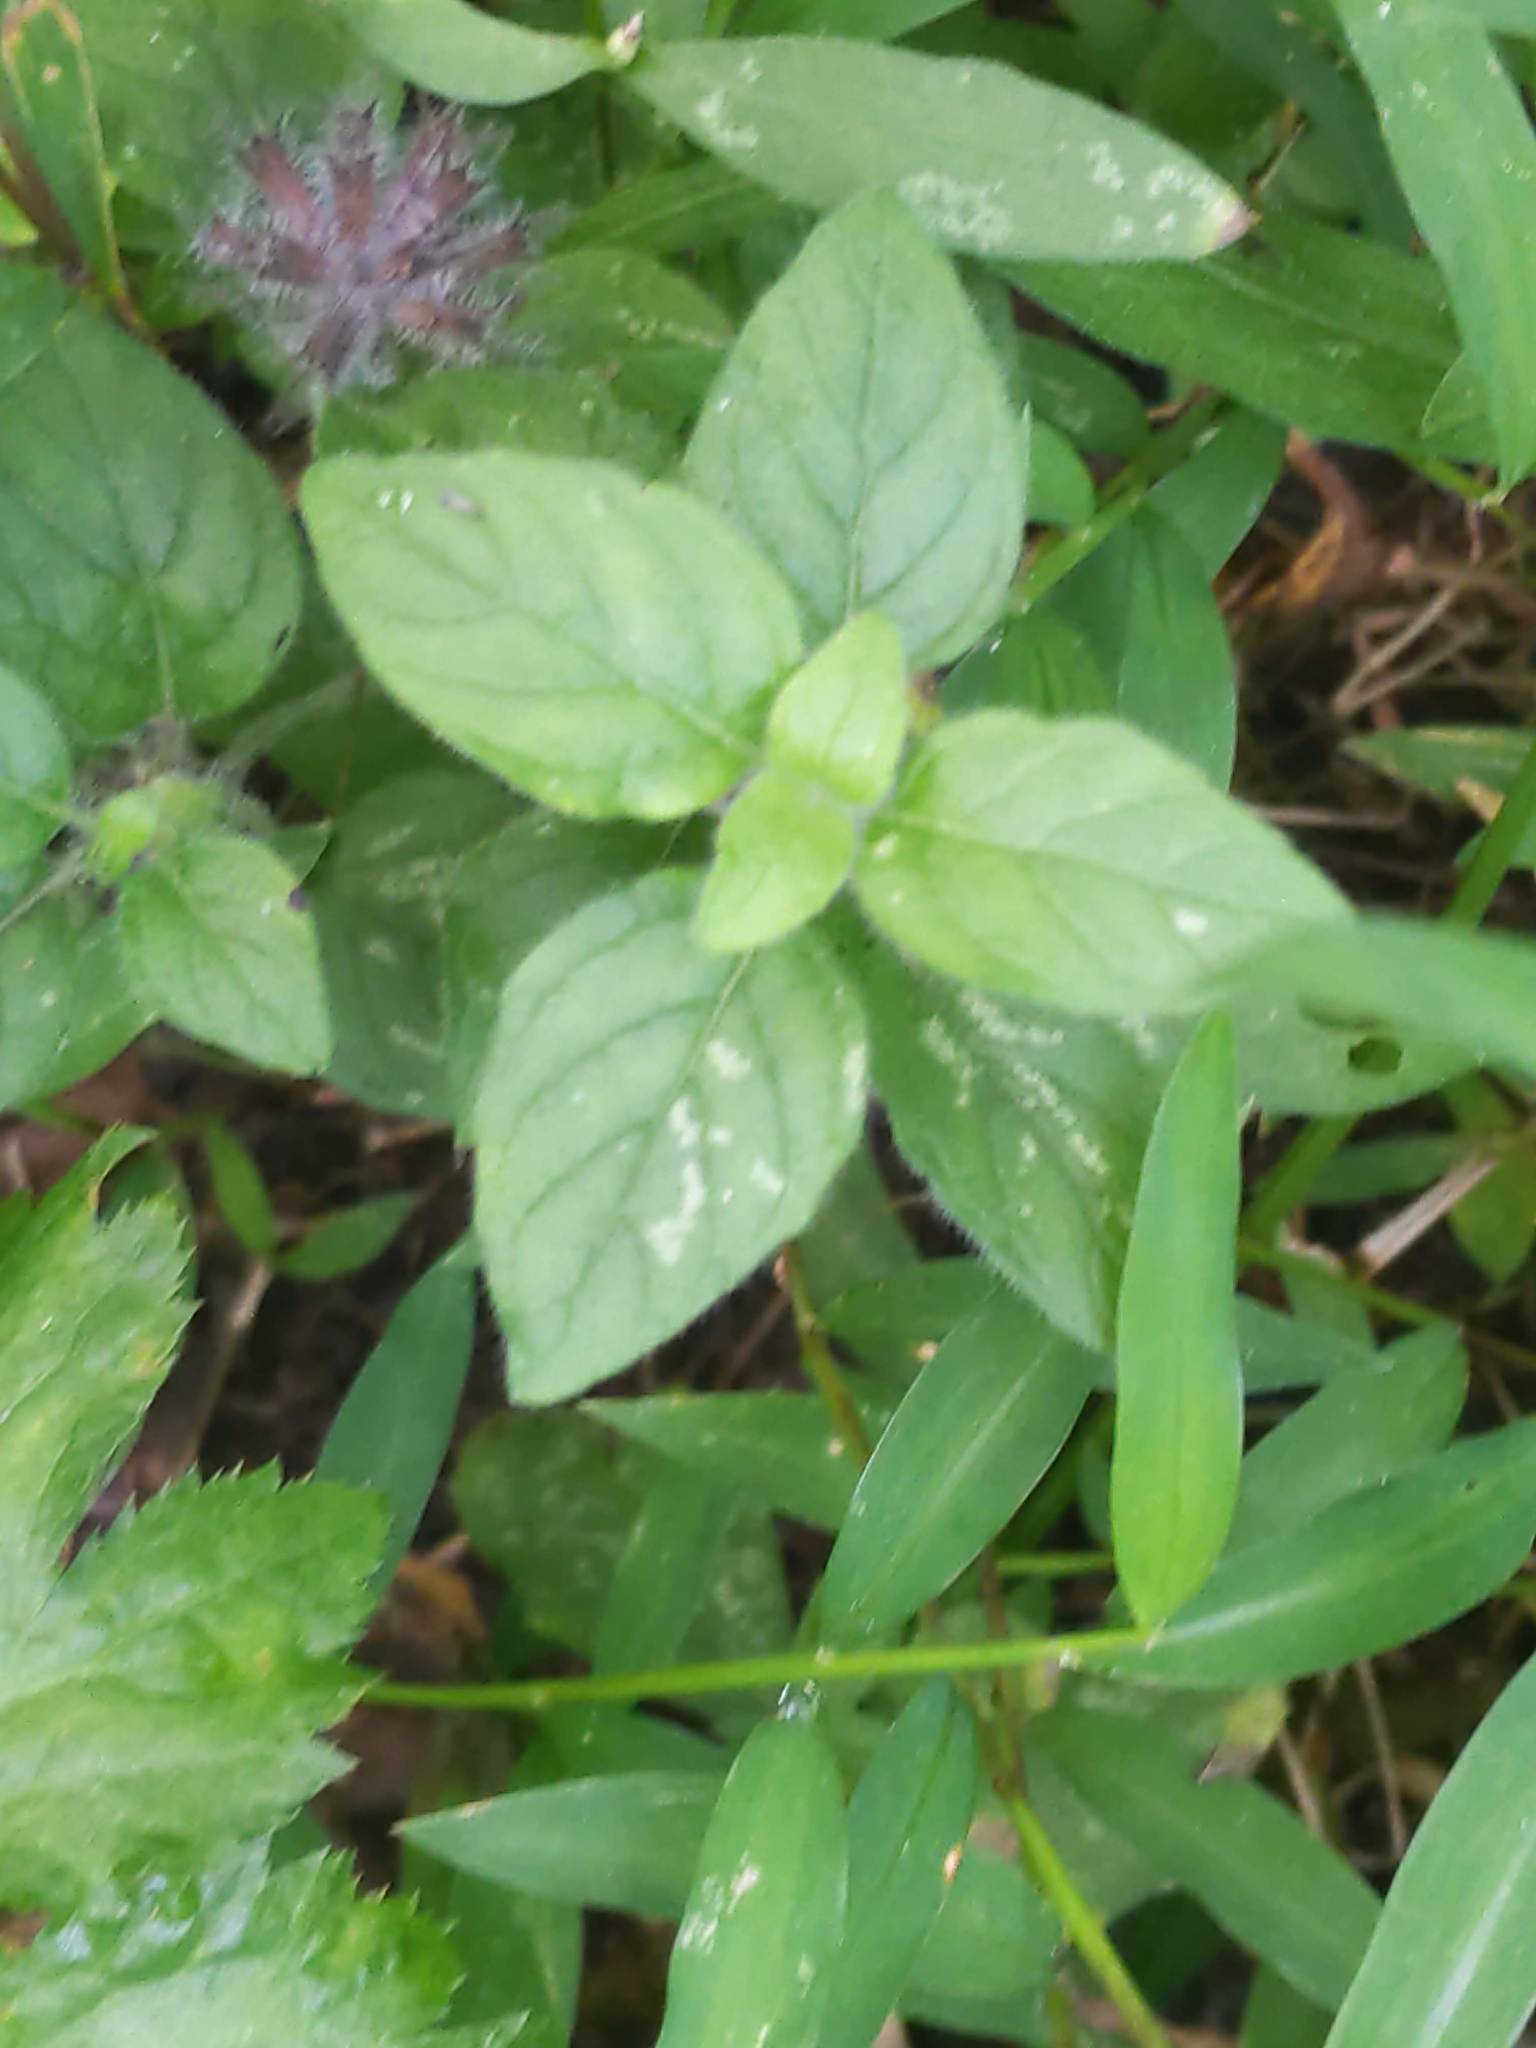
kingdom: Plantae
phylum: Tracheophyta
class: Magnoliopsida
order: Lamiales
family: Lamiaceae
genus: Clinopodium
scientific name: Clinopodium vulgare
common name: Wild basil
